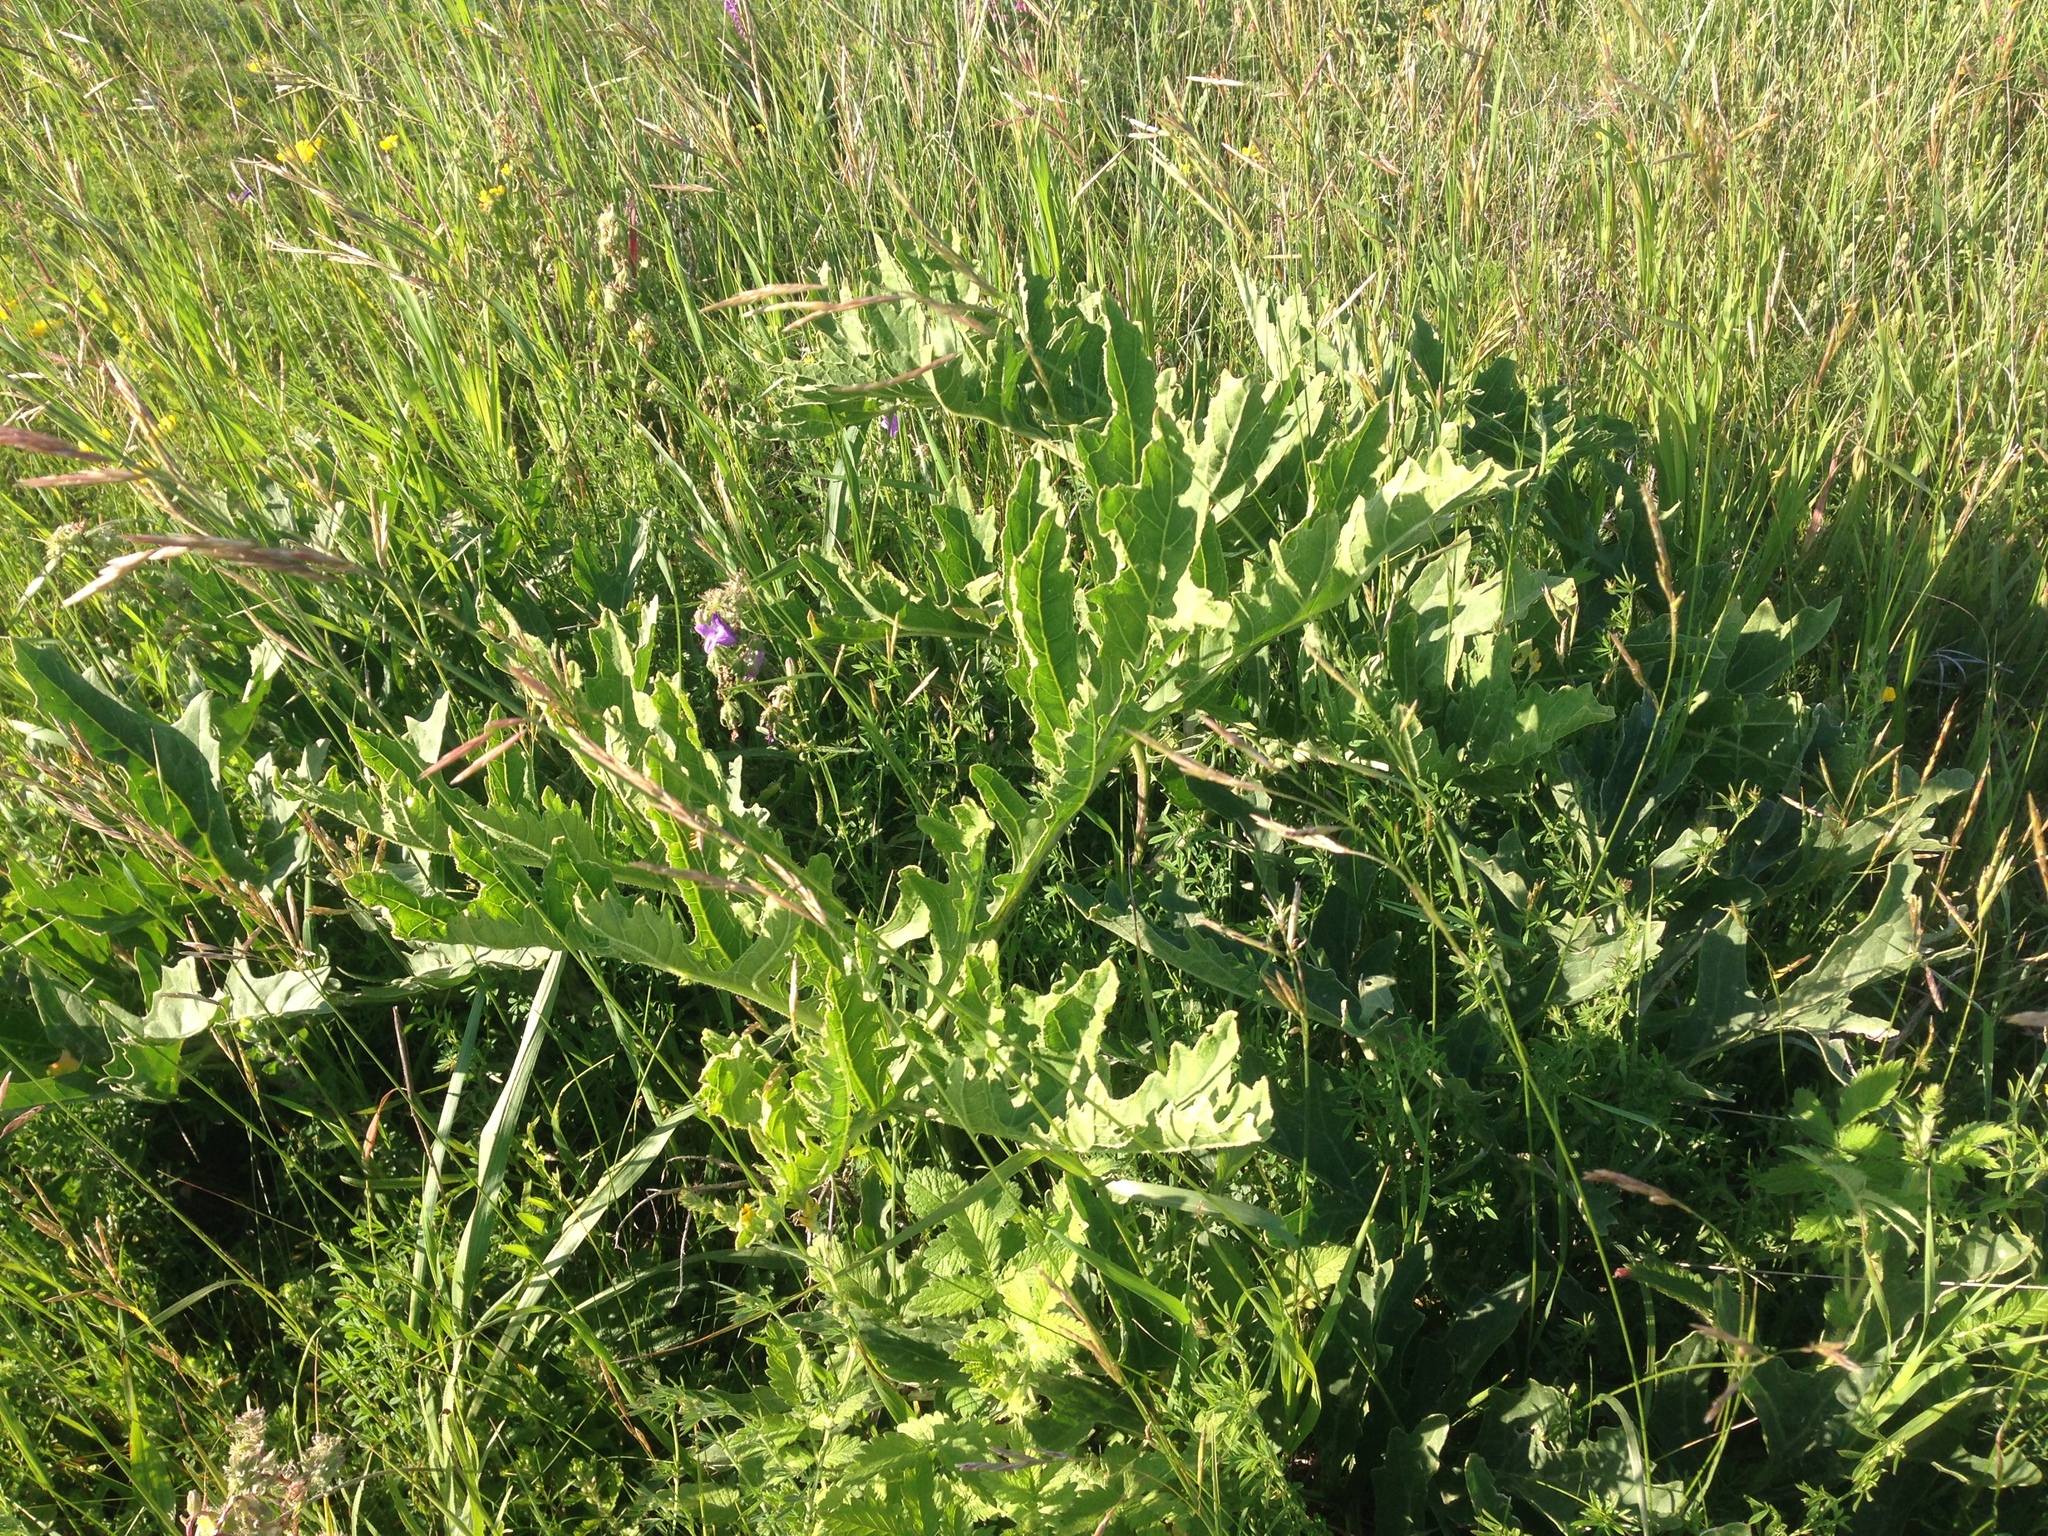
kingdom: Plantae
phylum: Tracheophyta
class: Magnoliopsida
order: Brassicales
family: Brassicaceae
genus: Crambe
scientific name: Crambe tataria
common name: Tartarian breadplant
